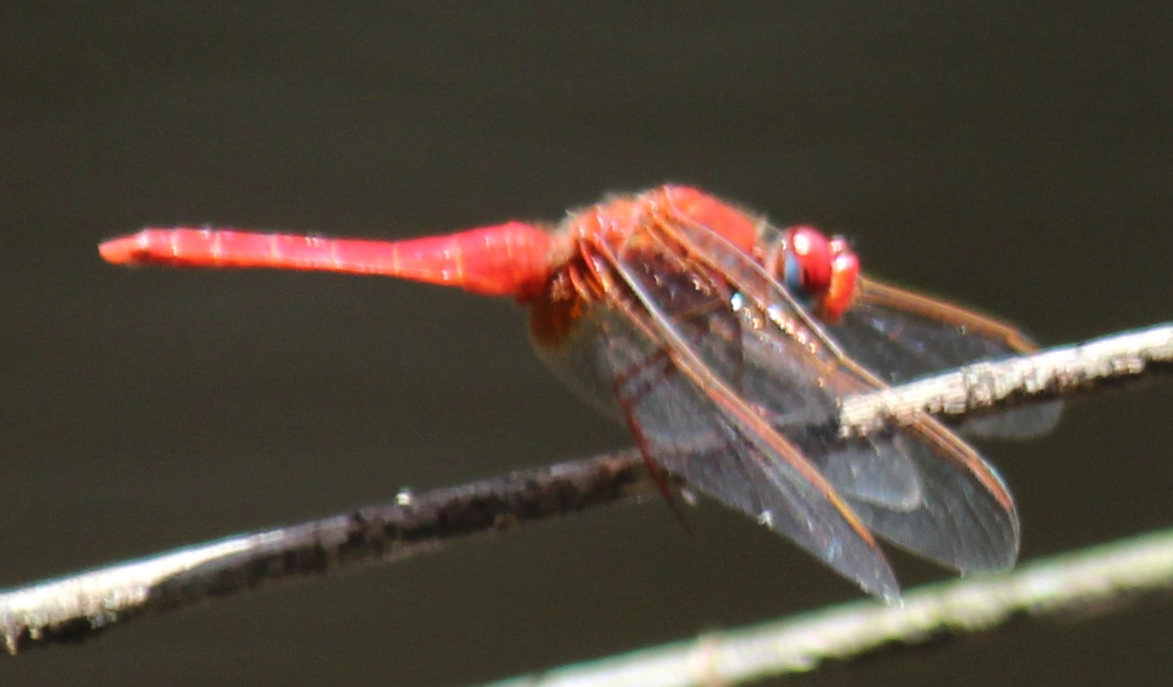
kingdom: Animalia
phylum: Arthropoda
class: Insecta
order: Odonata
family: Libellulidae
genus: Crocothemis
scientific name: Crocothemis erythraea
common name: Scarlet dragonfly
